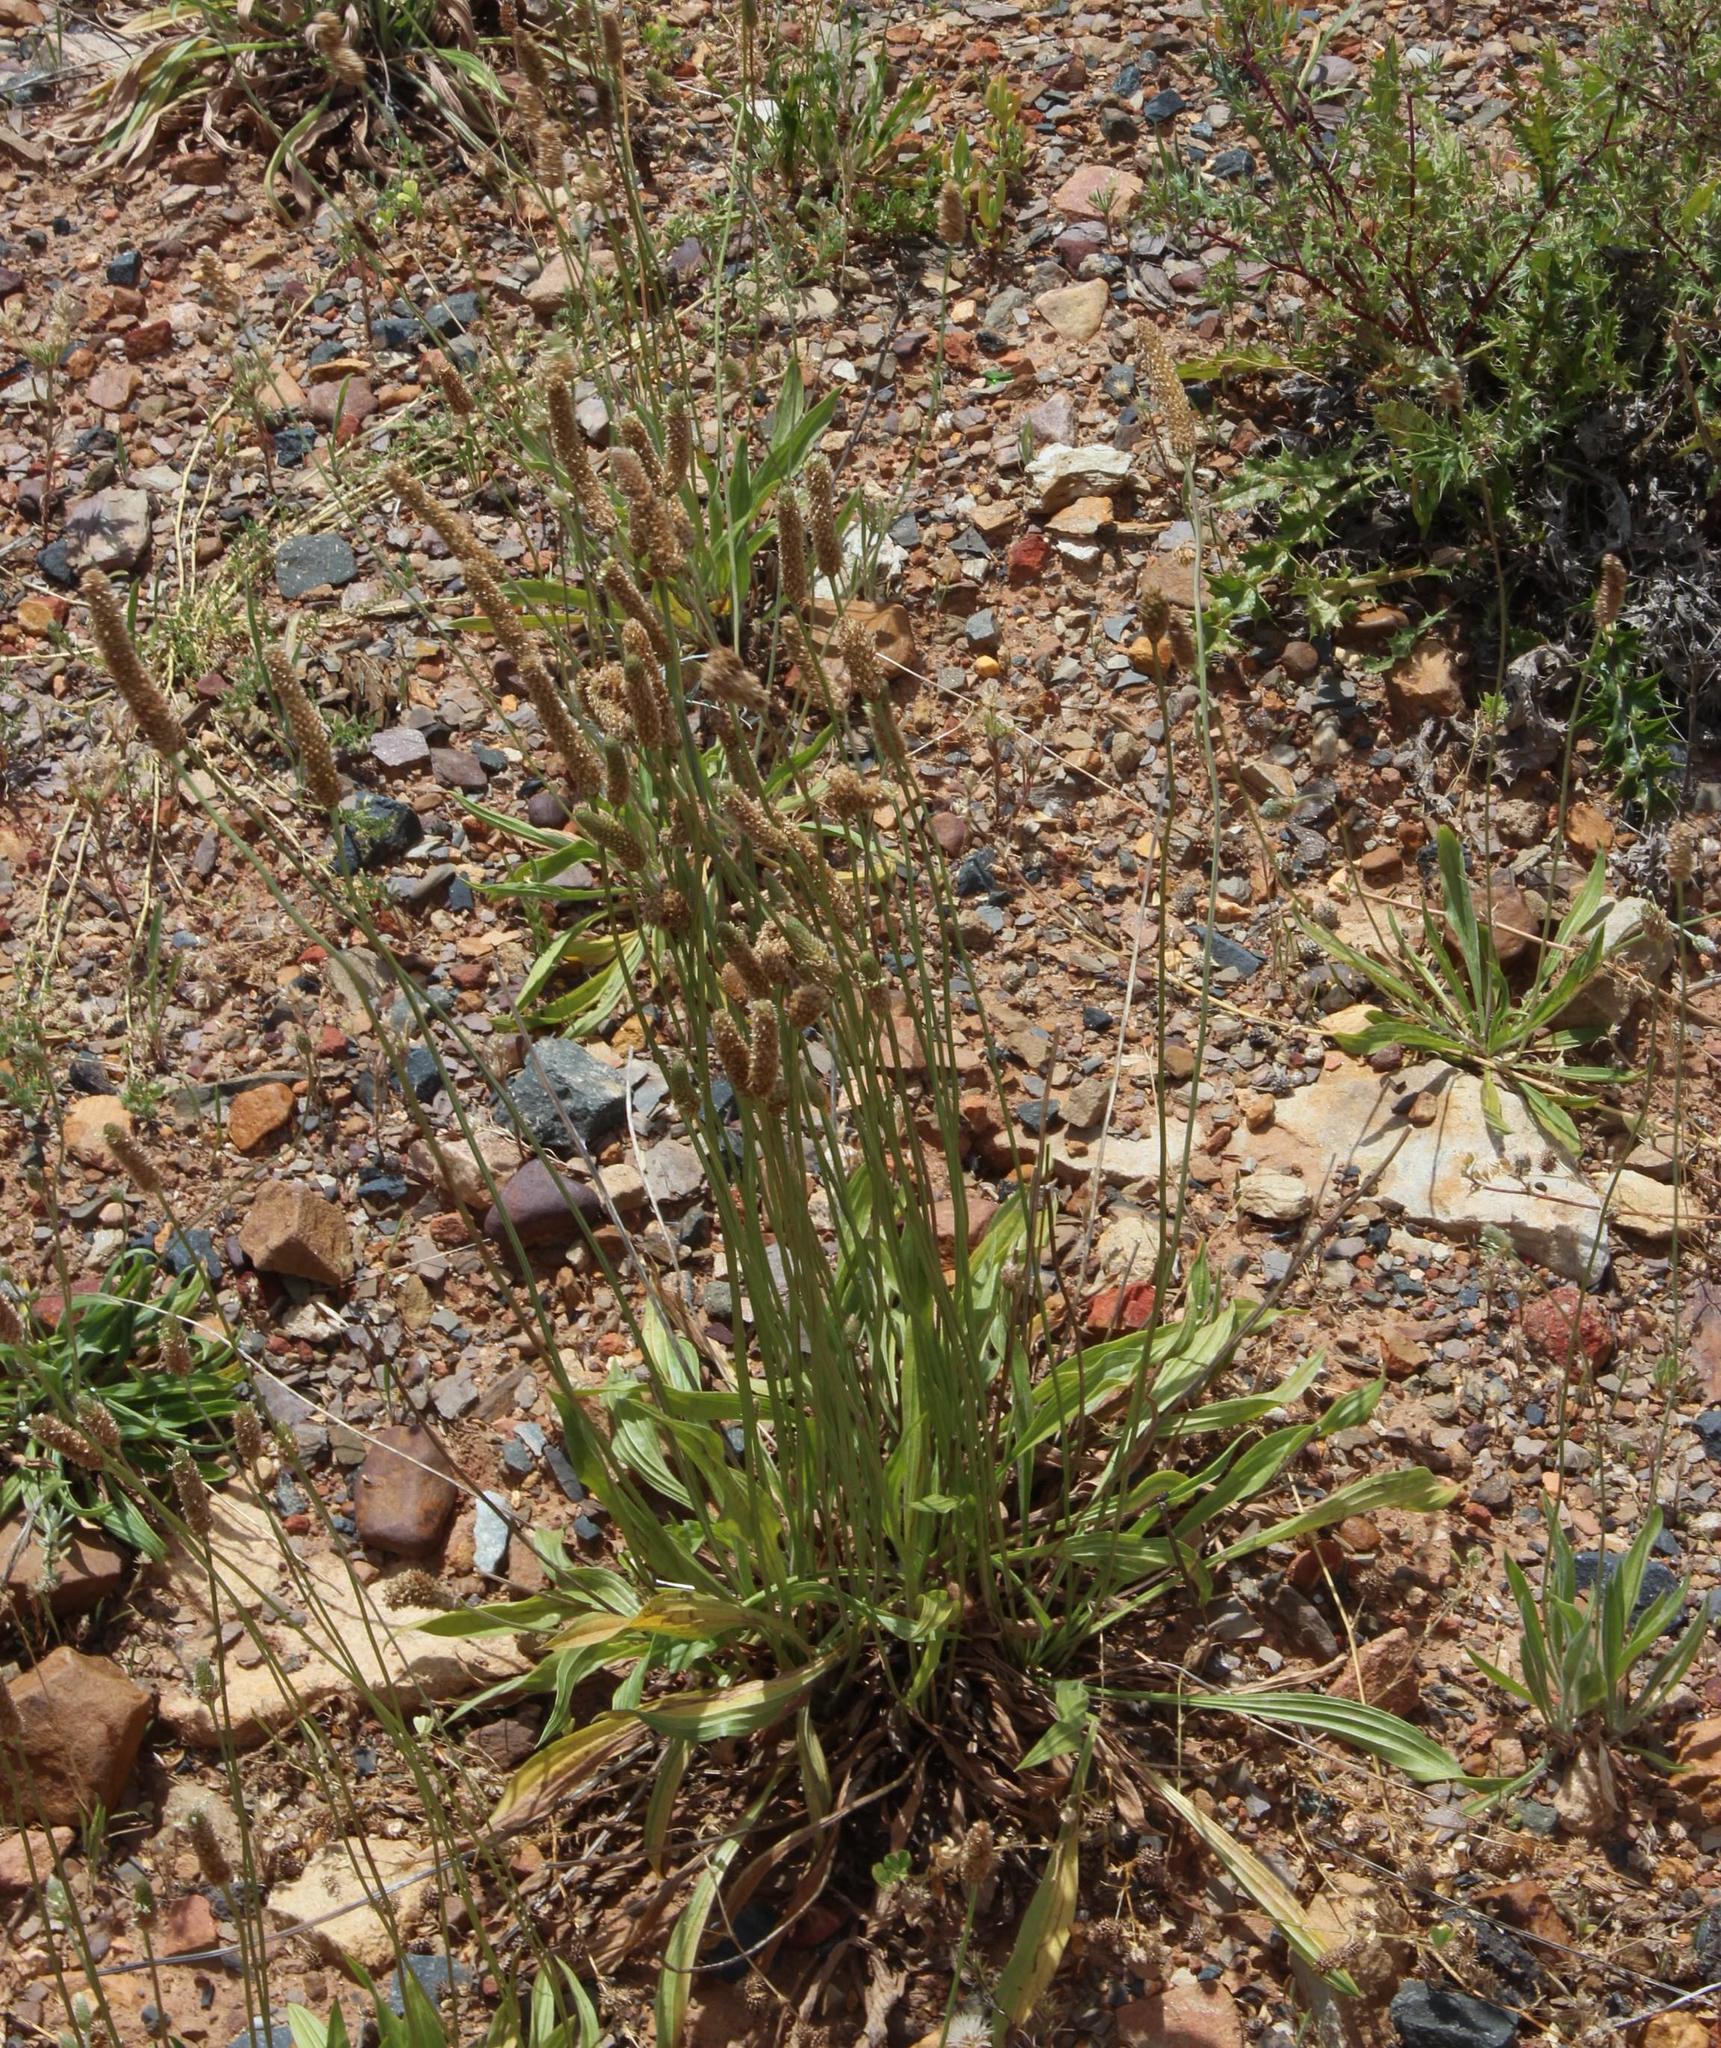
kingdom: Plantae
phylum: Tracheophyta
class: Magnoliopsida
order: Lamiales
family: Plantaginaceae
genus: Plantago
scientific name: Plantago lanceolata
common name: Ribwort plantain
